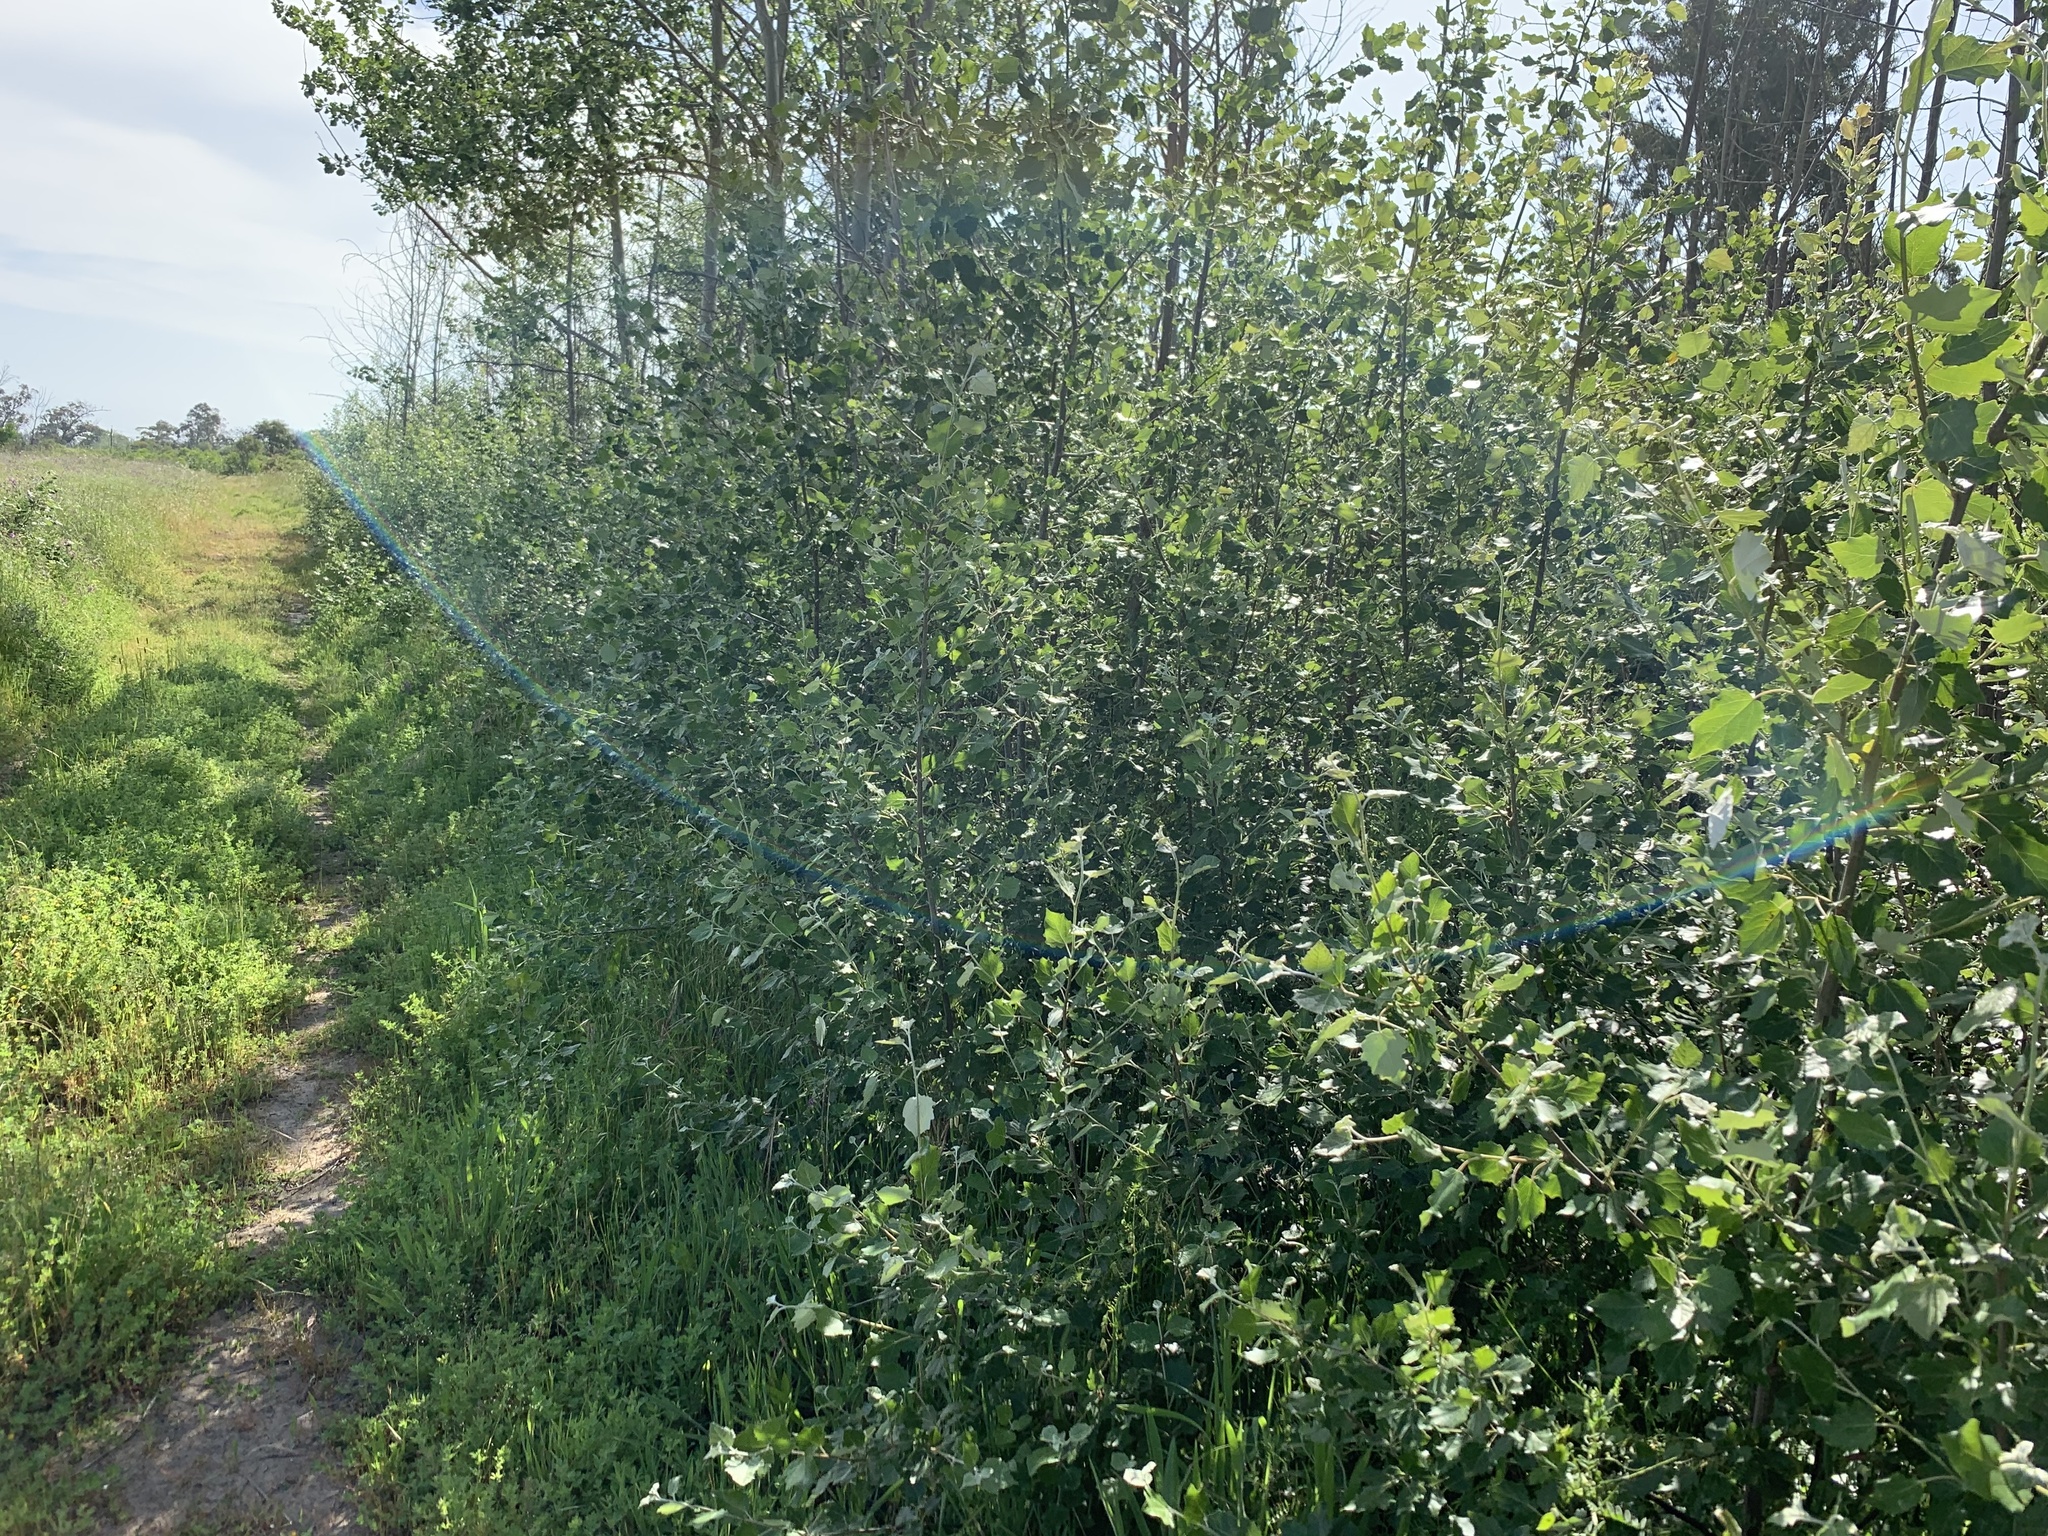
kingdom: Plantae
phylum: Tracheophyta
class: Magnoliopsida
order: Malpighiales
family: Salicaceae
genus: Populus
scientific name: Populus canescens
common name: Gray poplar
